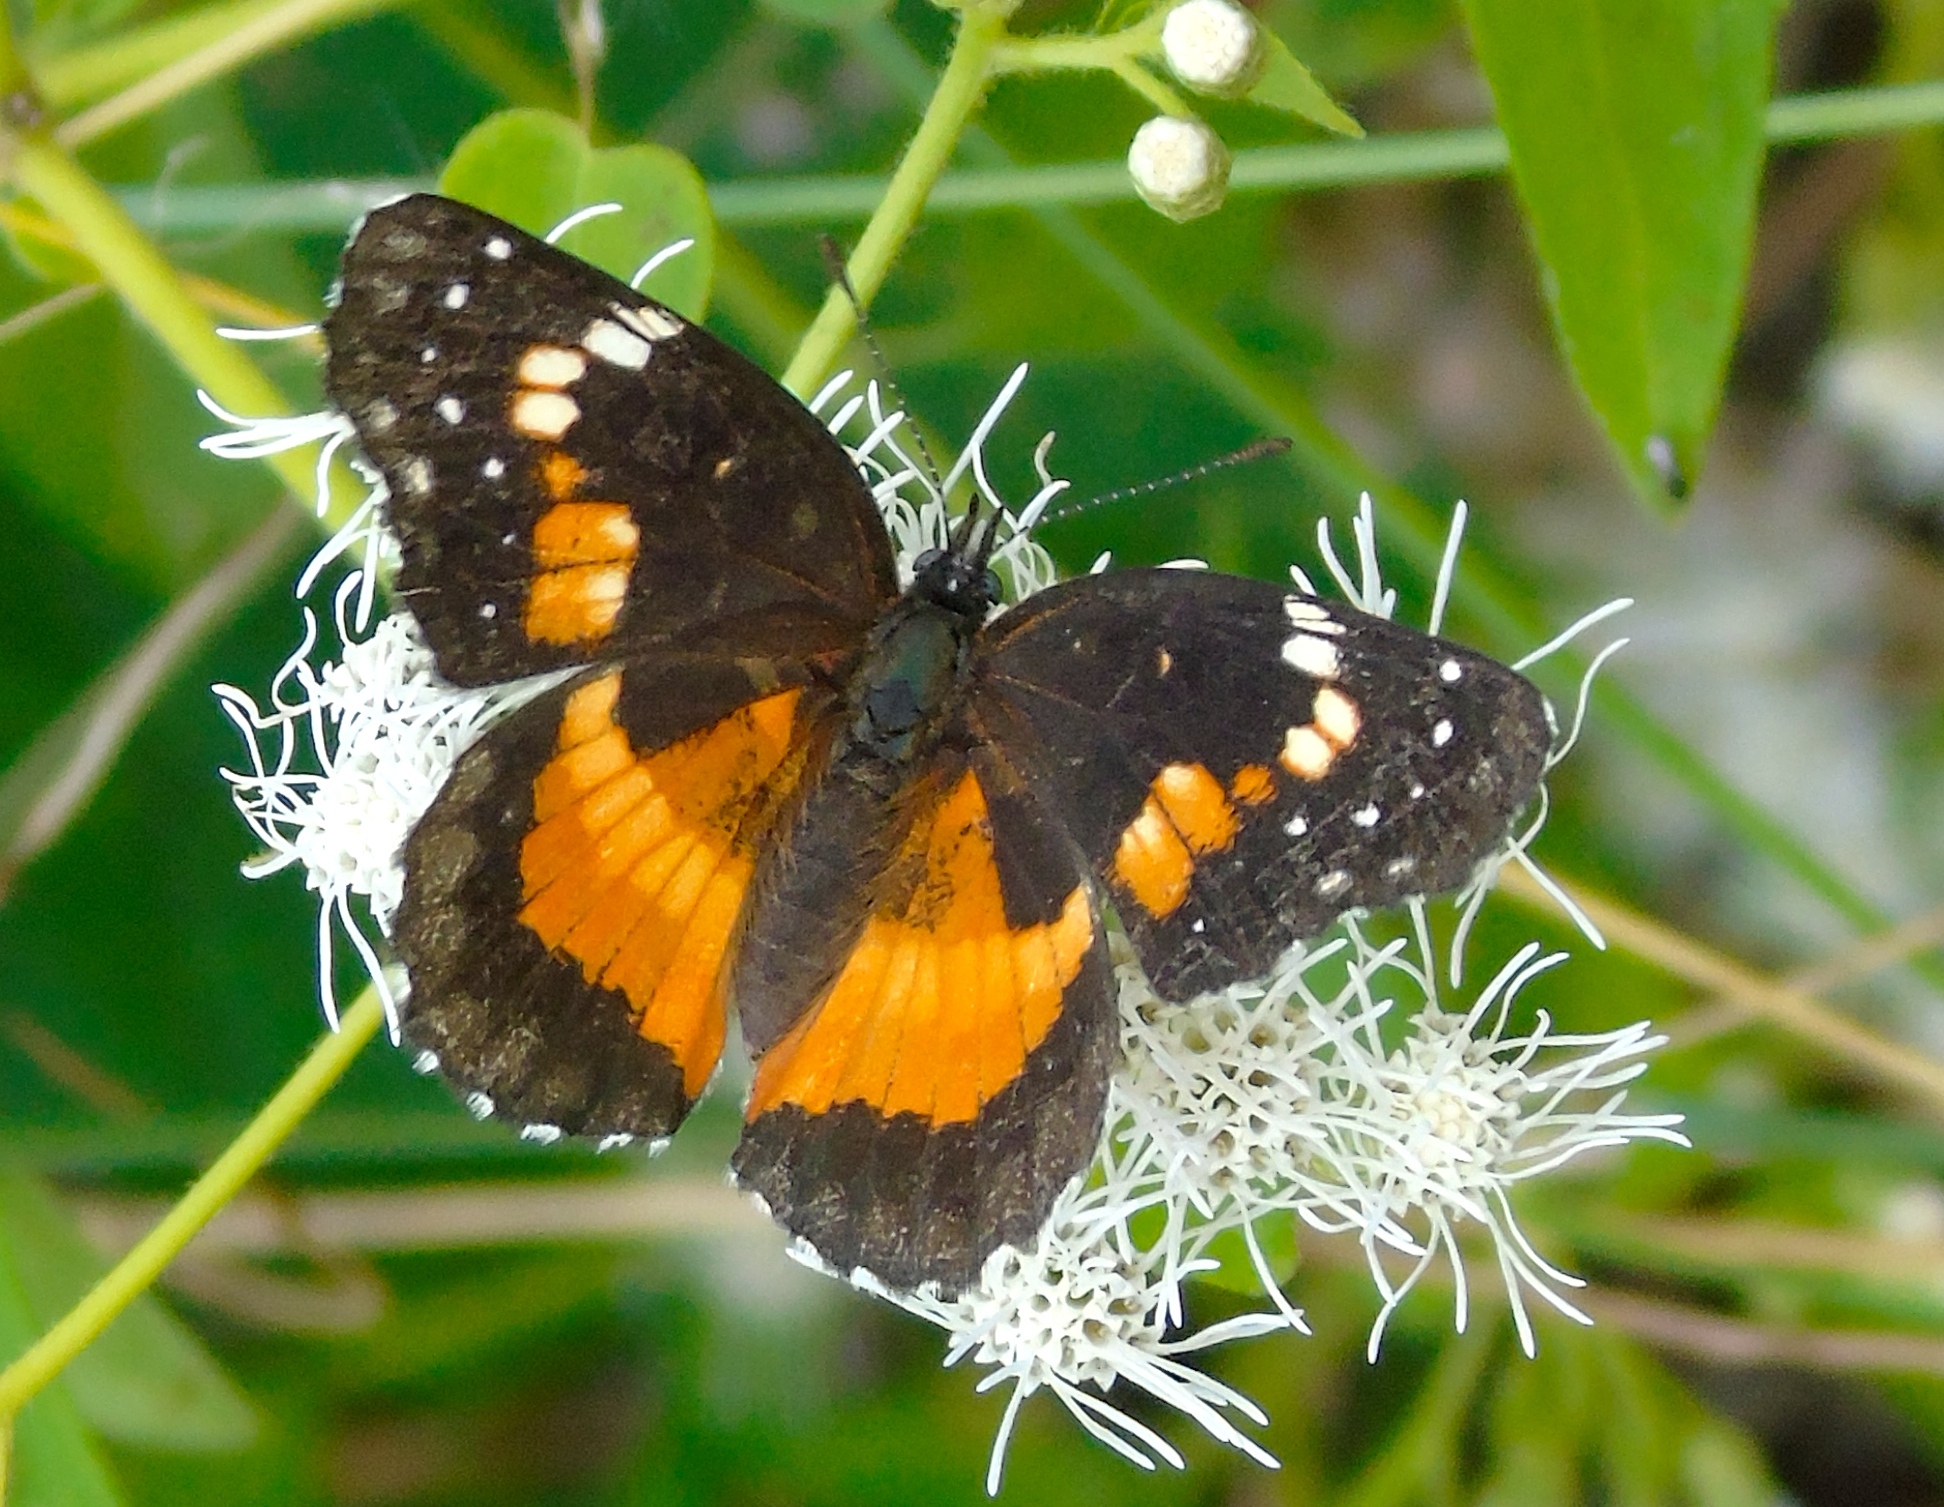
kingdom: Animalia
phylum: Arthropoda
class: Insecta
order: Lepidoptera
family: Nymphalidae
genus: Chlosyne
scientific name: Chlosyne lacinia
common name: Bordered patch
